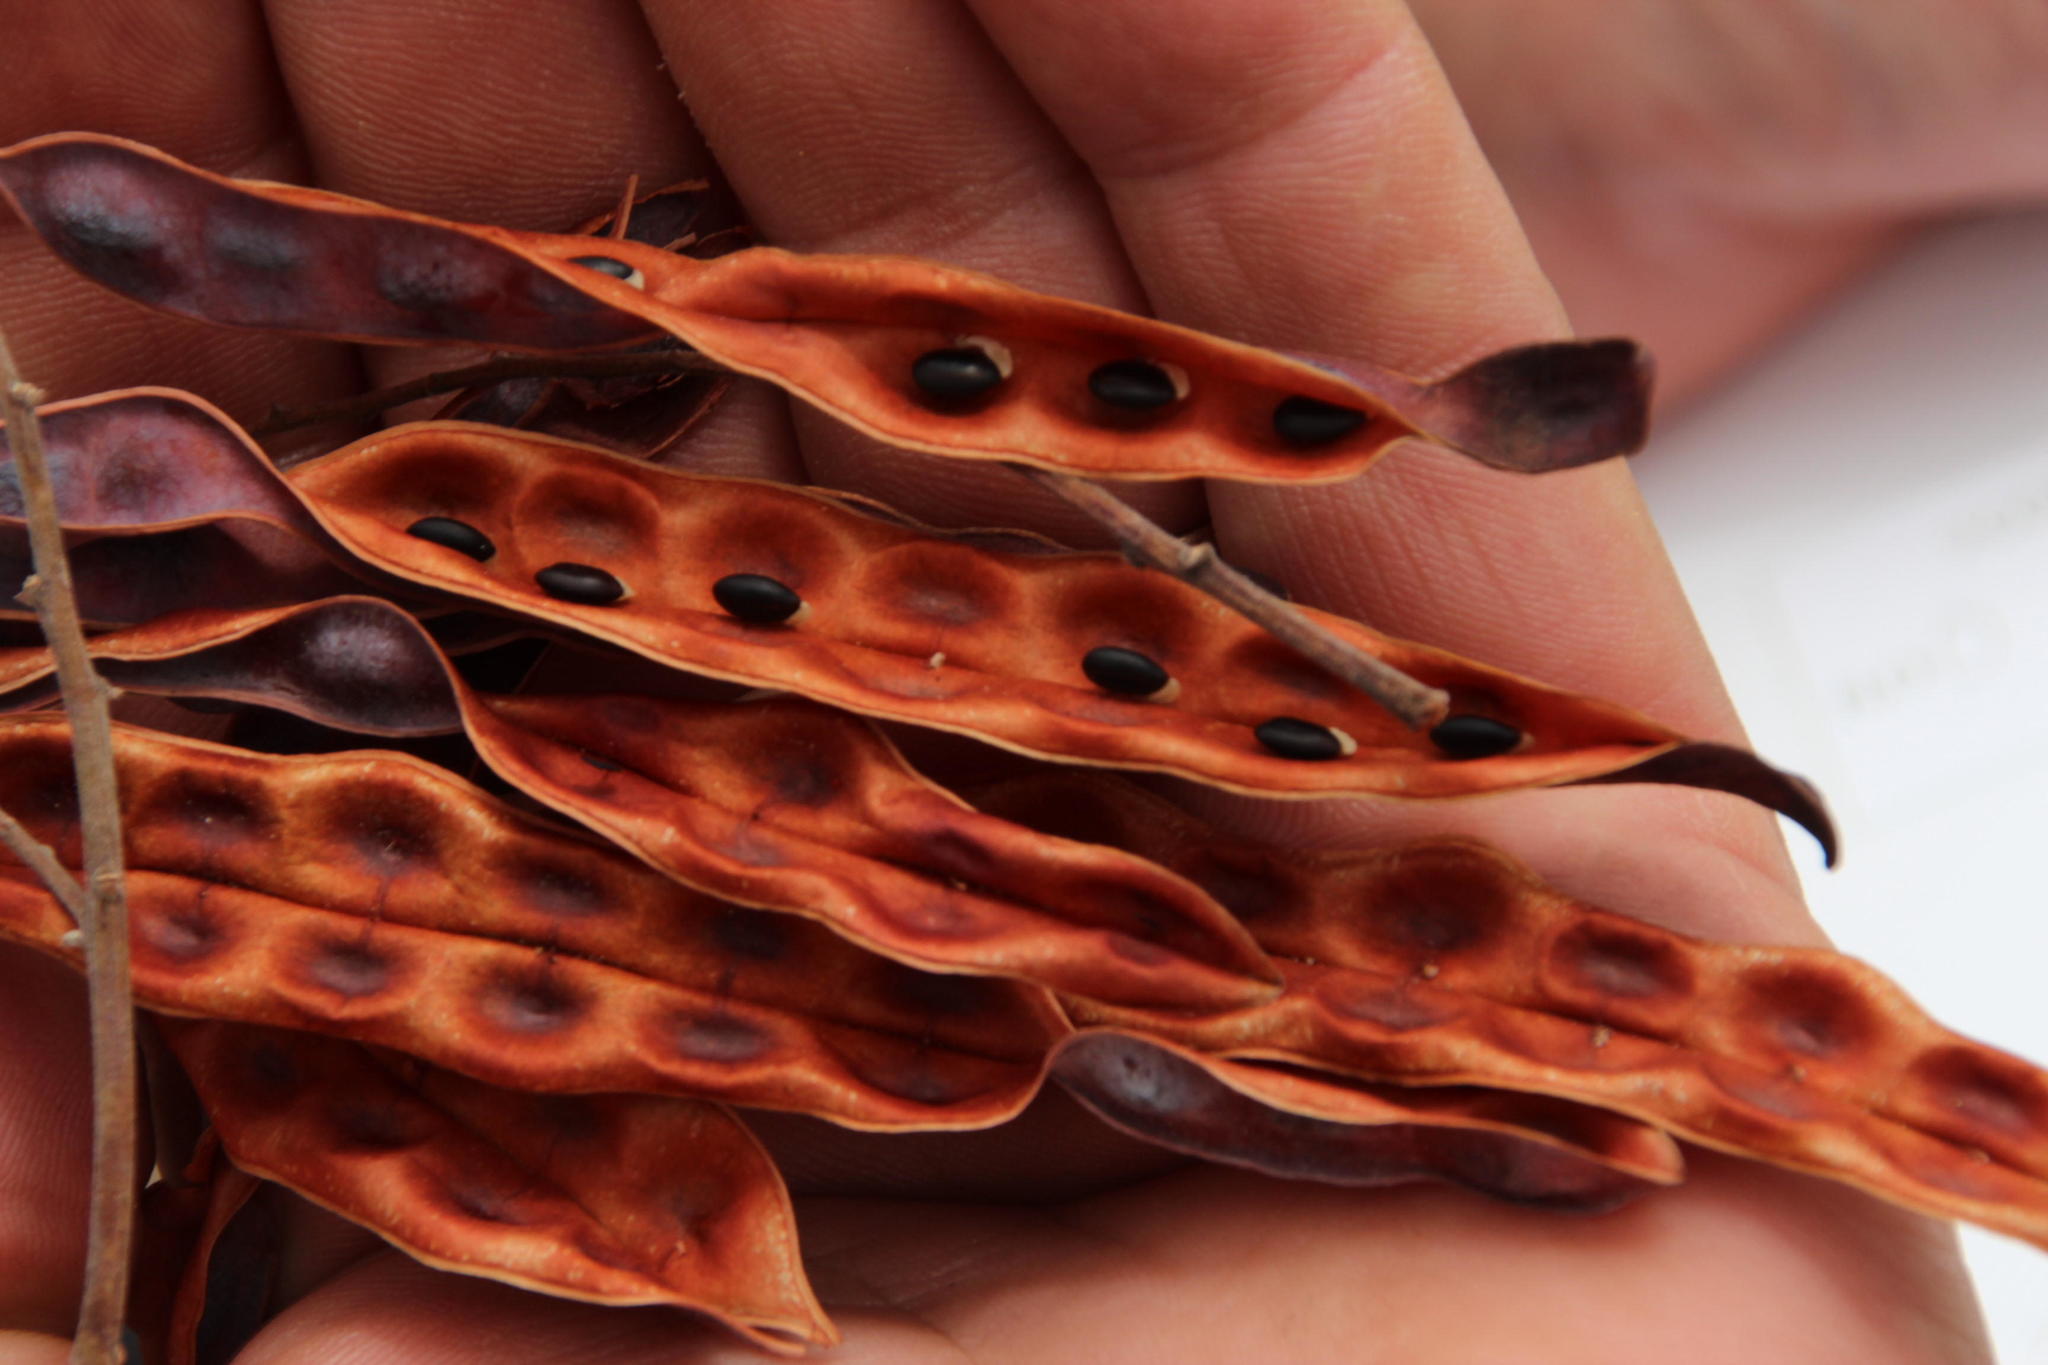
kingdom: Plantae
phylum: Tracheophyta
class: Magnoliopsida
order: Fabales
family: Fabaceae
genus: Acacia
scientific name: Acacia dealbata
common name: Silver wattle
